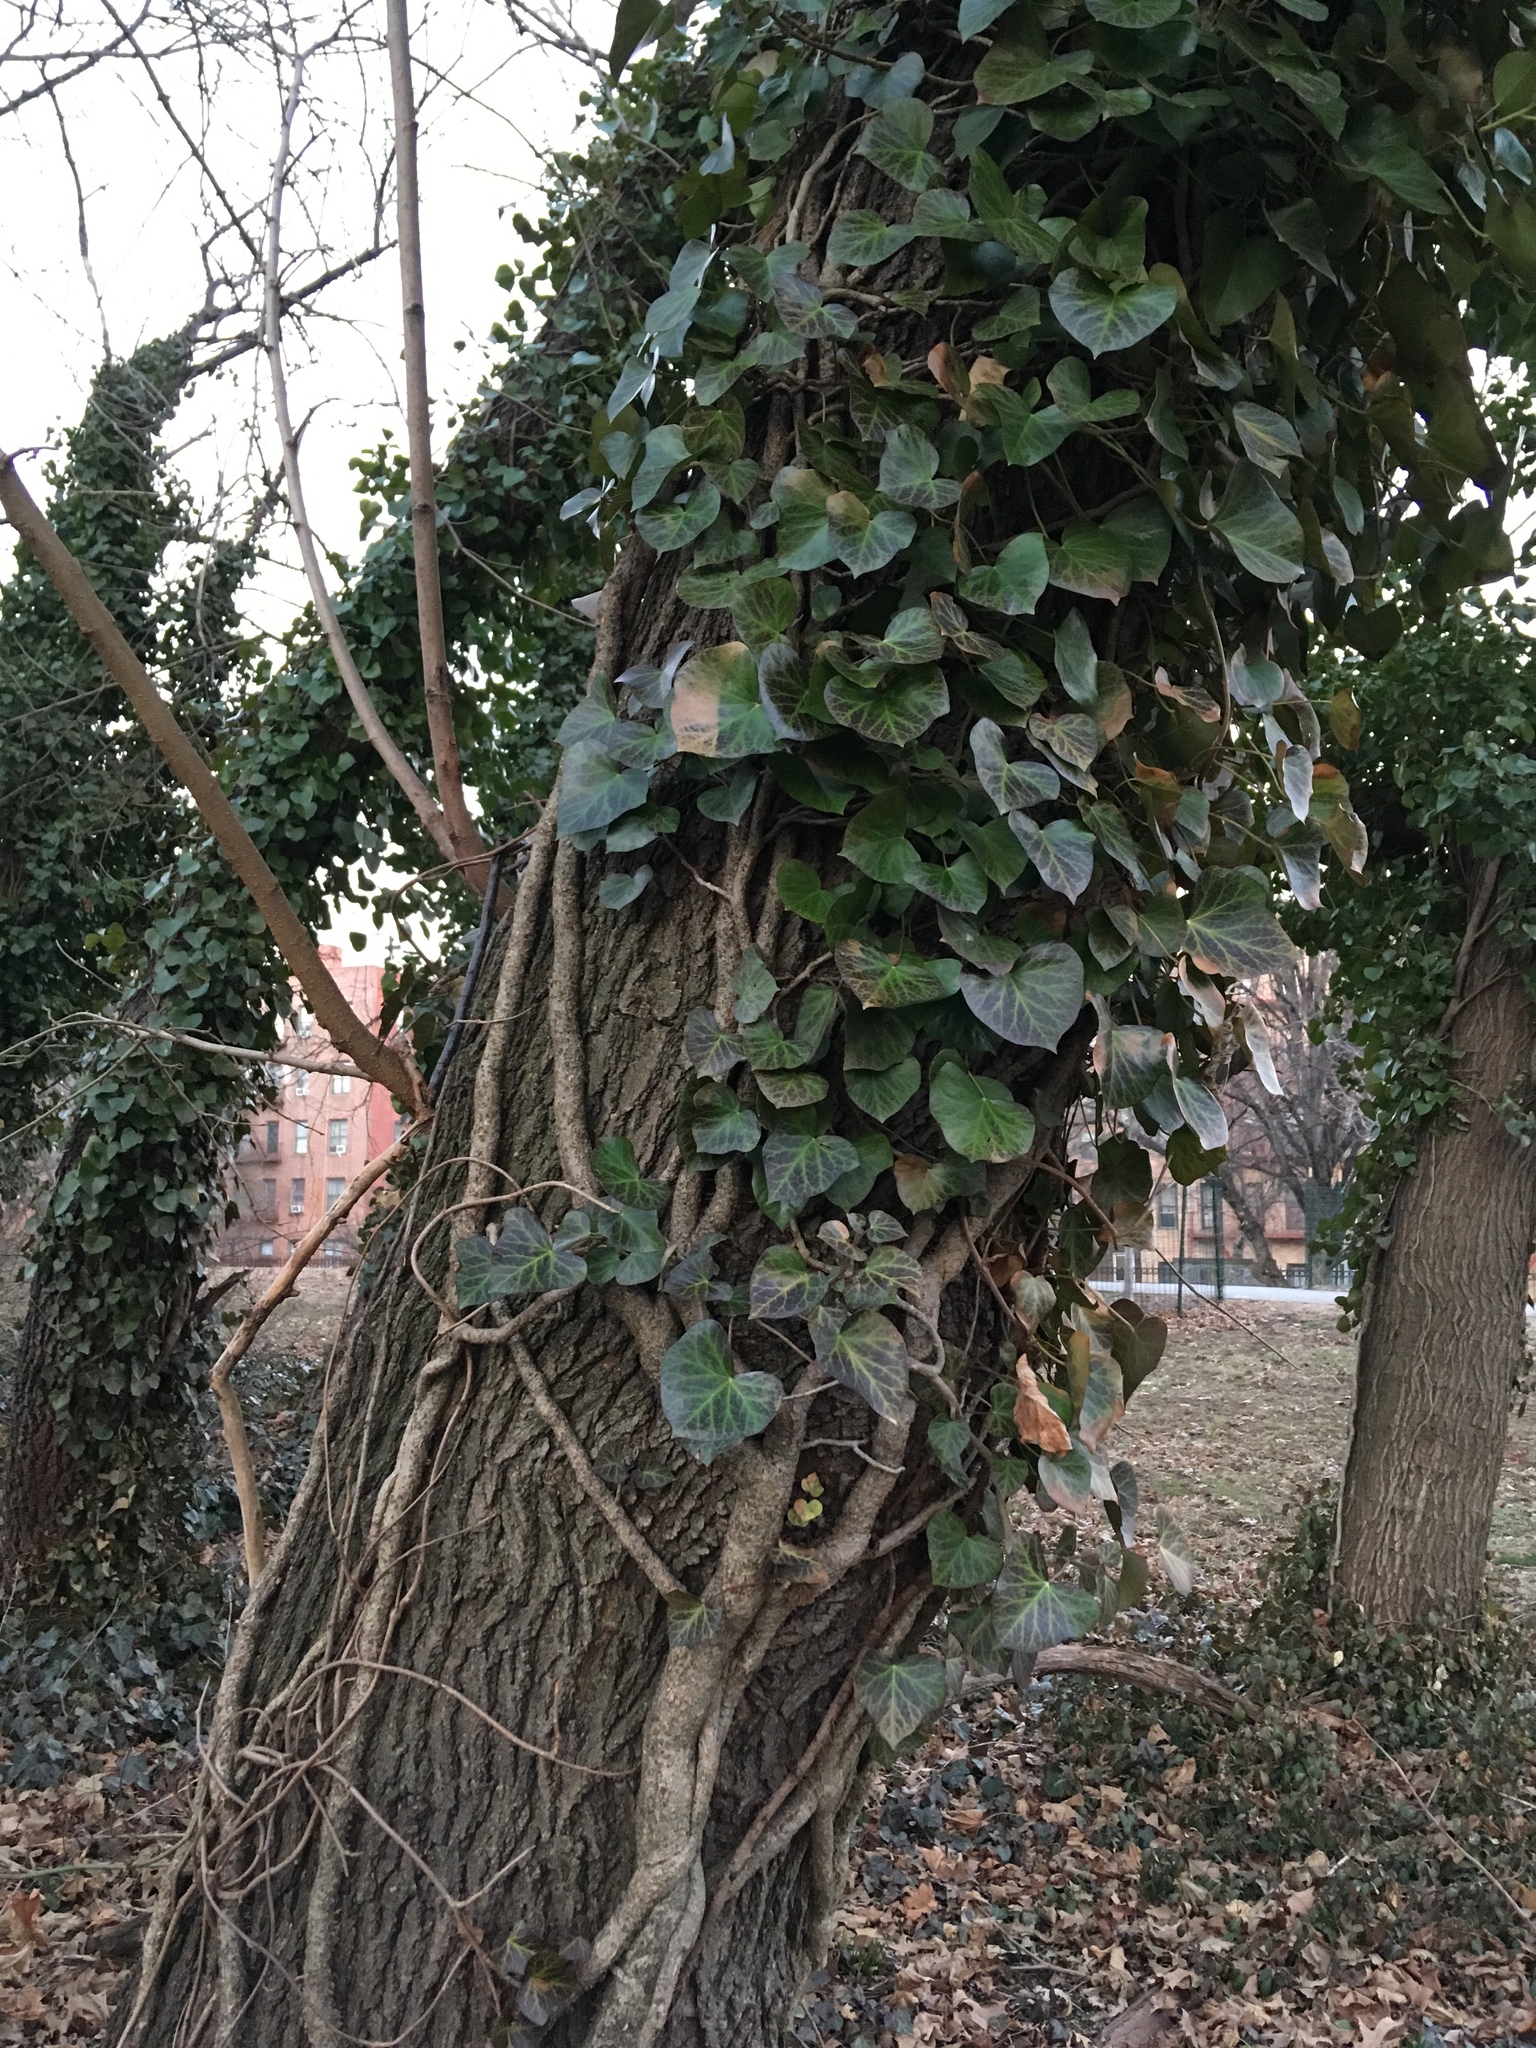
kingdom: Plantae
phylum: Tracheophyta
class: Magnoliopsida
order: Apiales
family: Araliaceae
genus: Hedera
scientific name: Hedera helix
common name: Ivy
